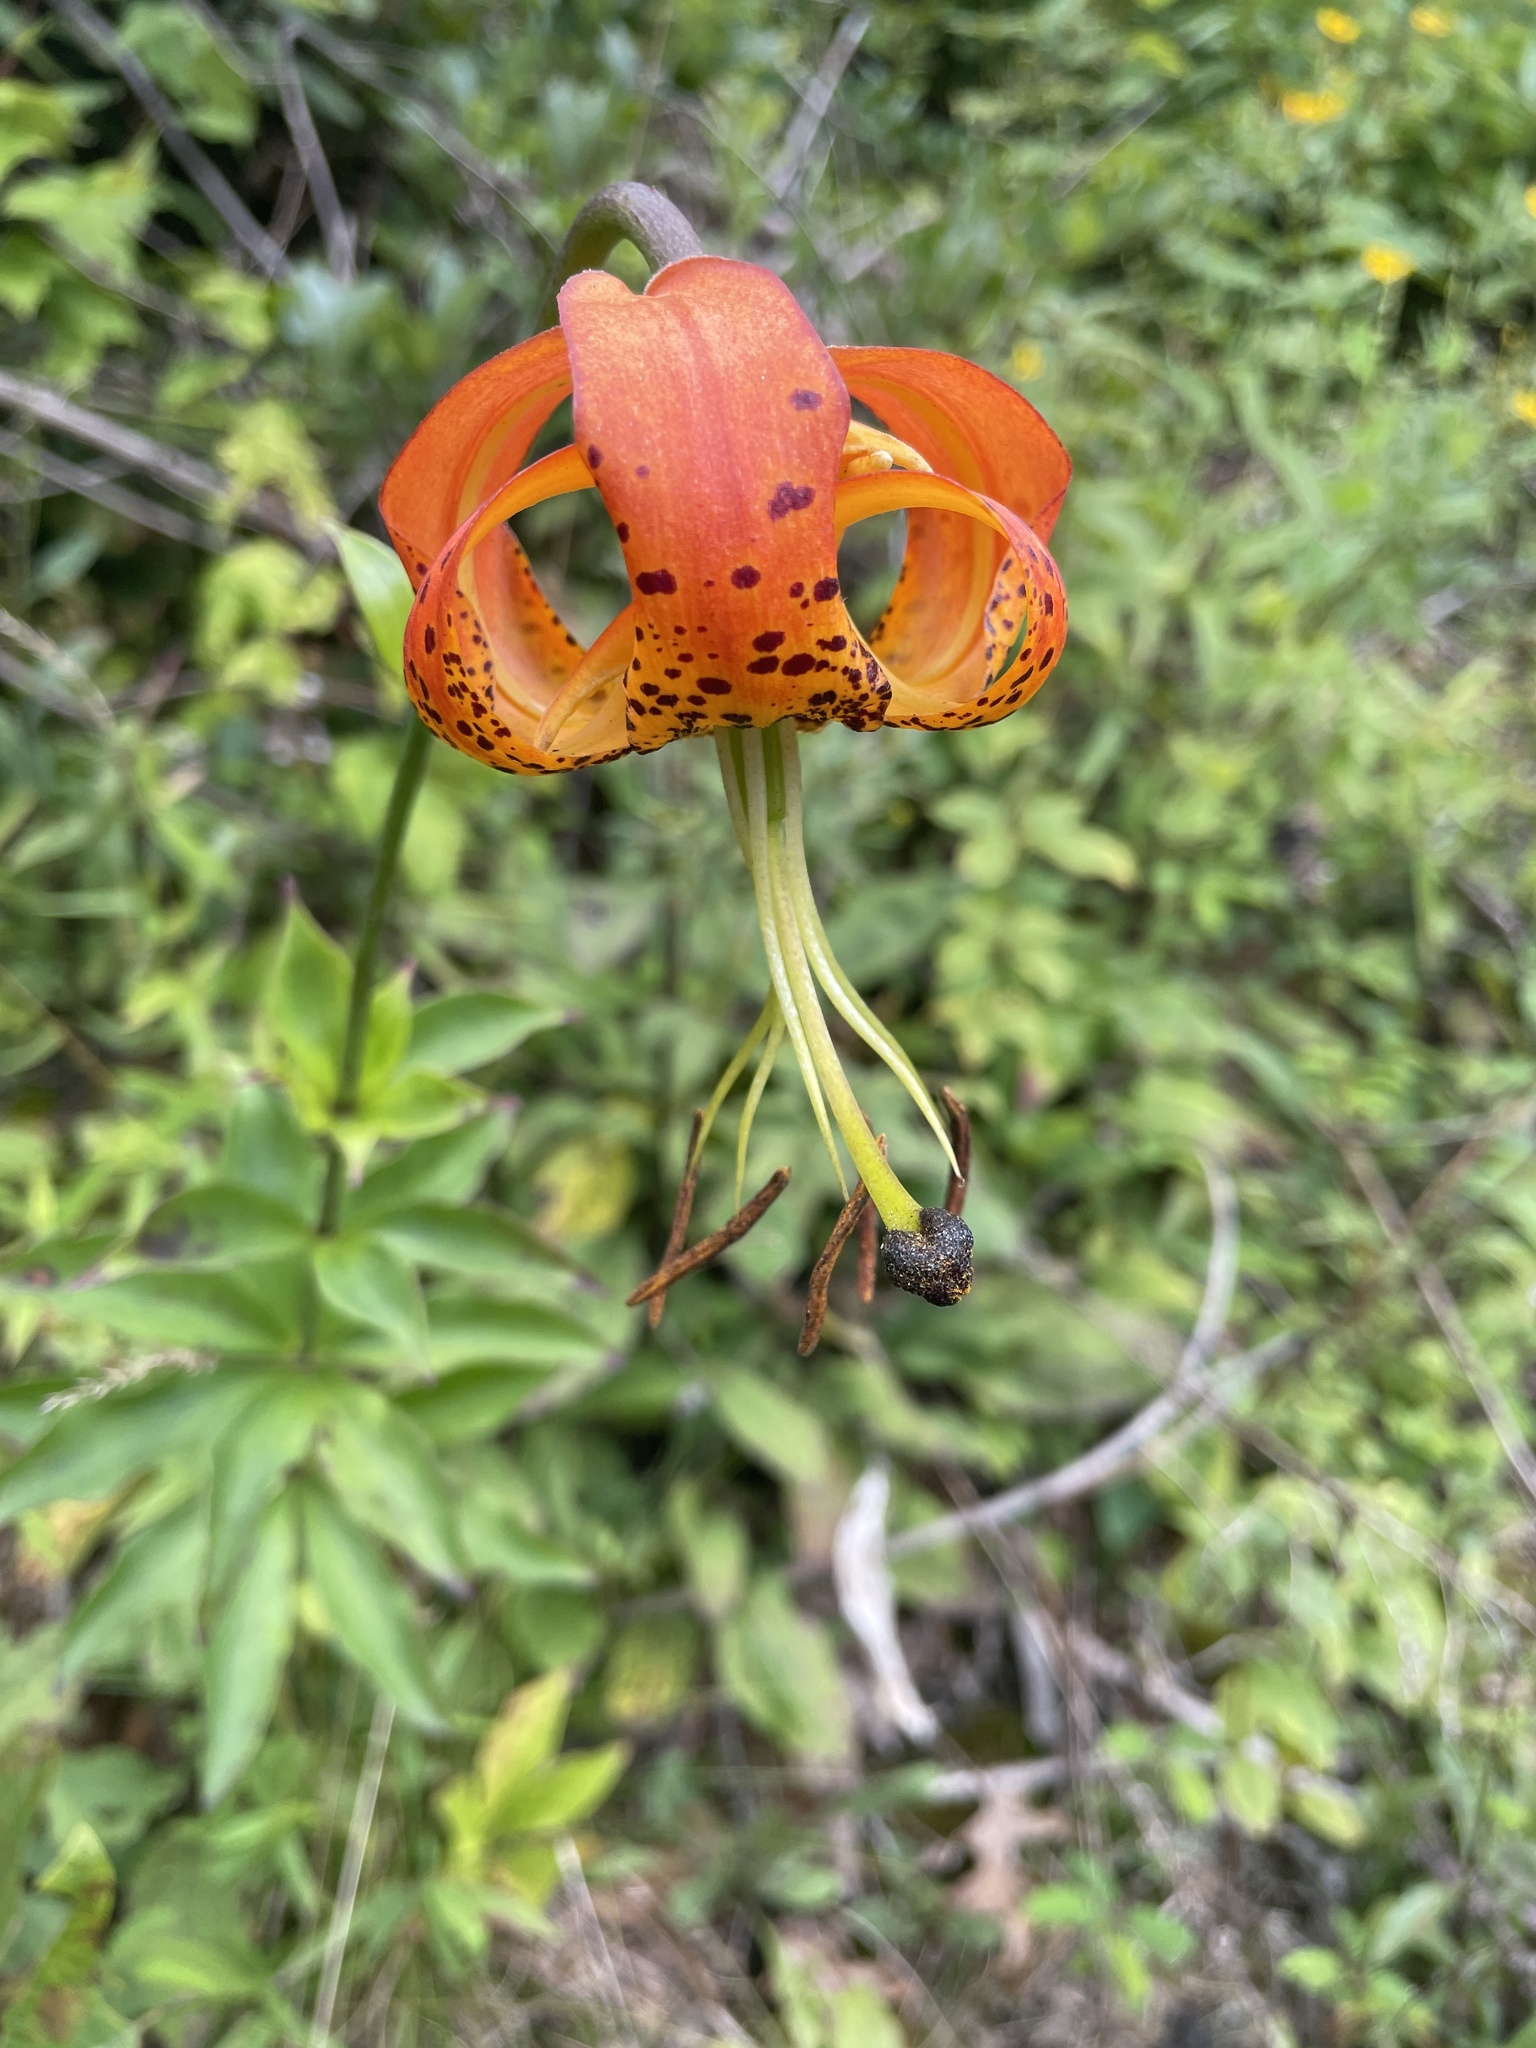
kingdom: Plantae
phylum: Tracheophyta
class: Liliopsida
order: Liliales
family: Liliaceae
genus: Lilium
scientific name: Lilium michauxii
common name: Carolina lily
